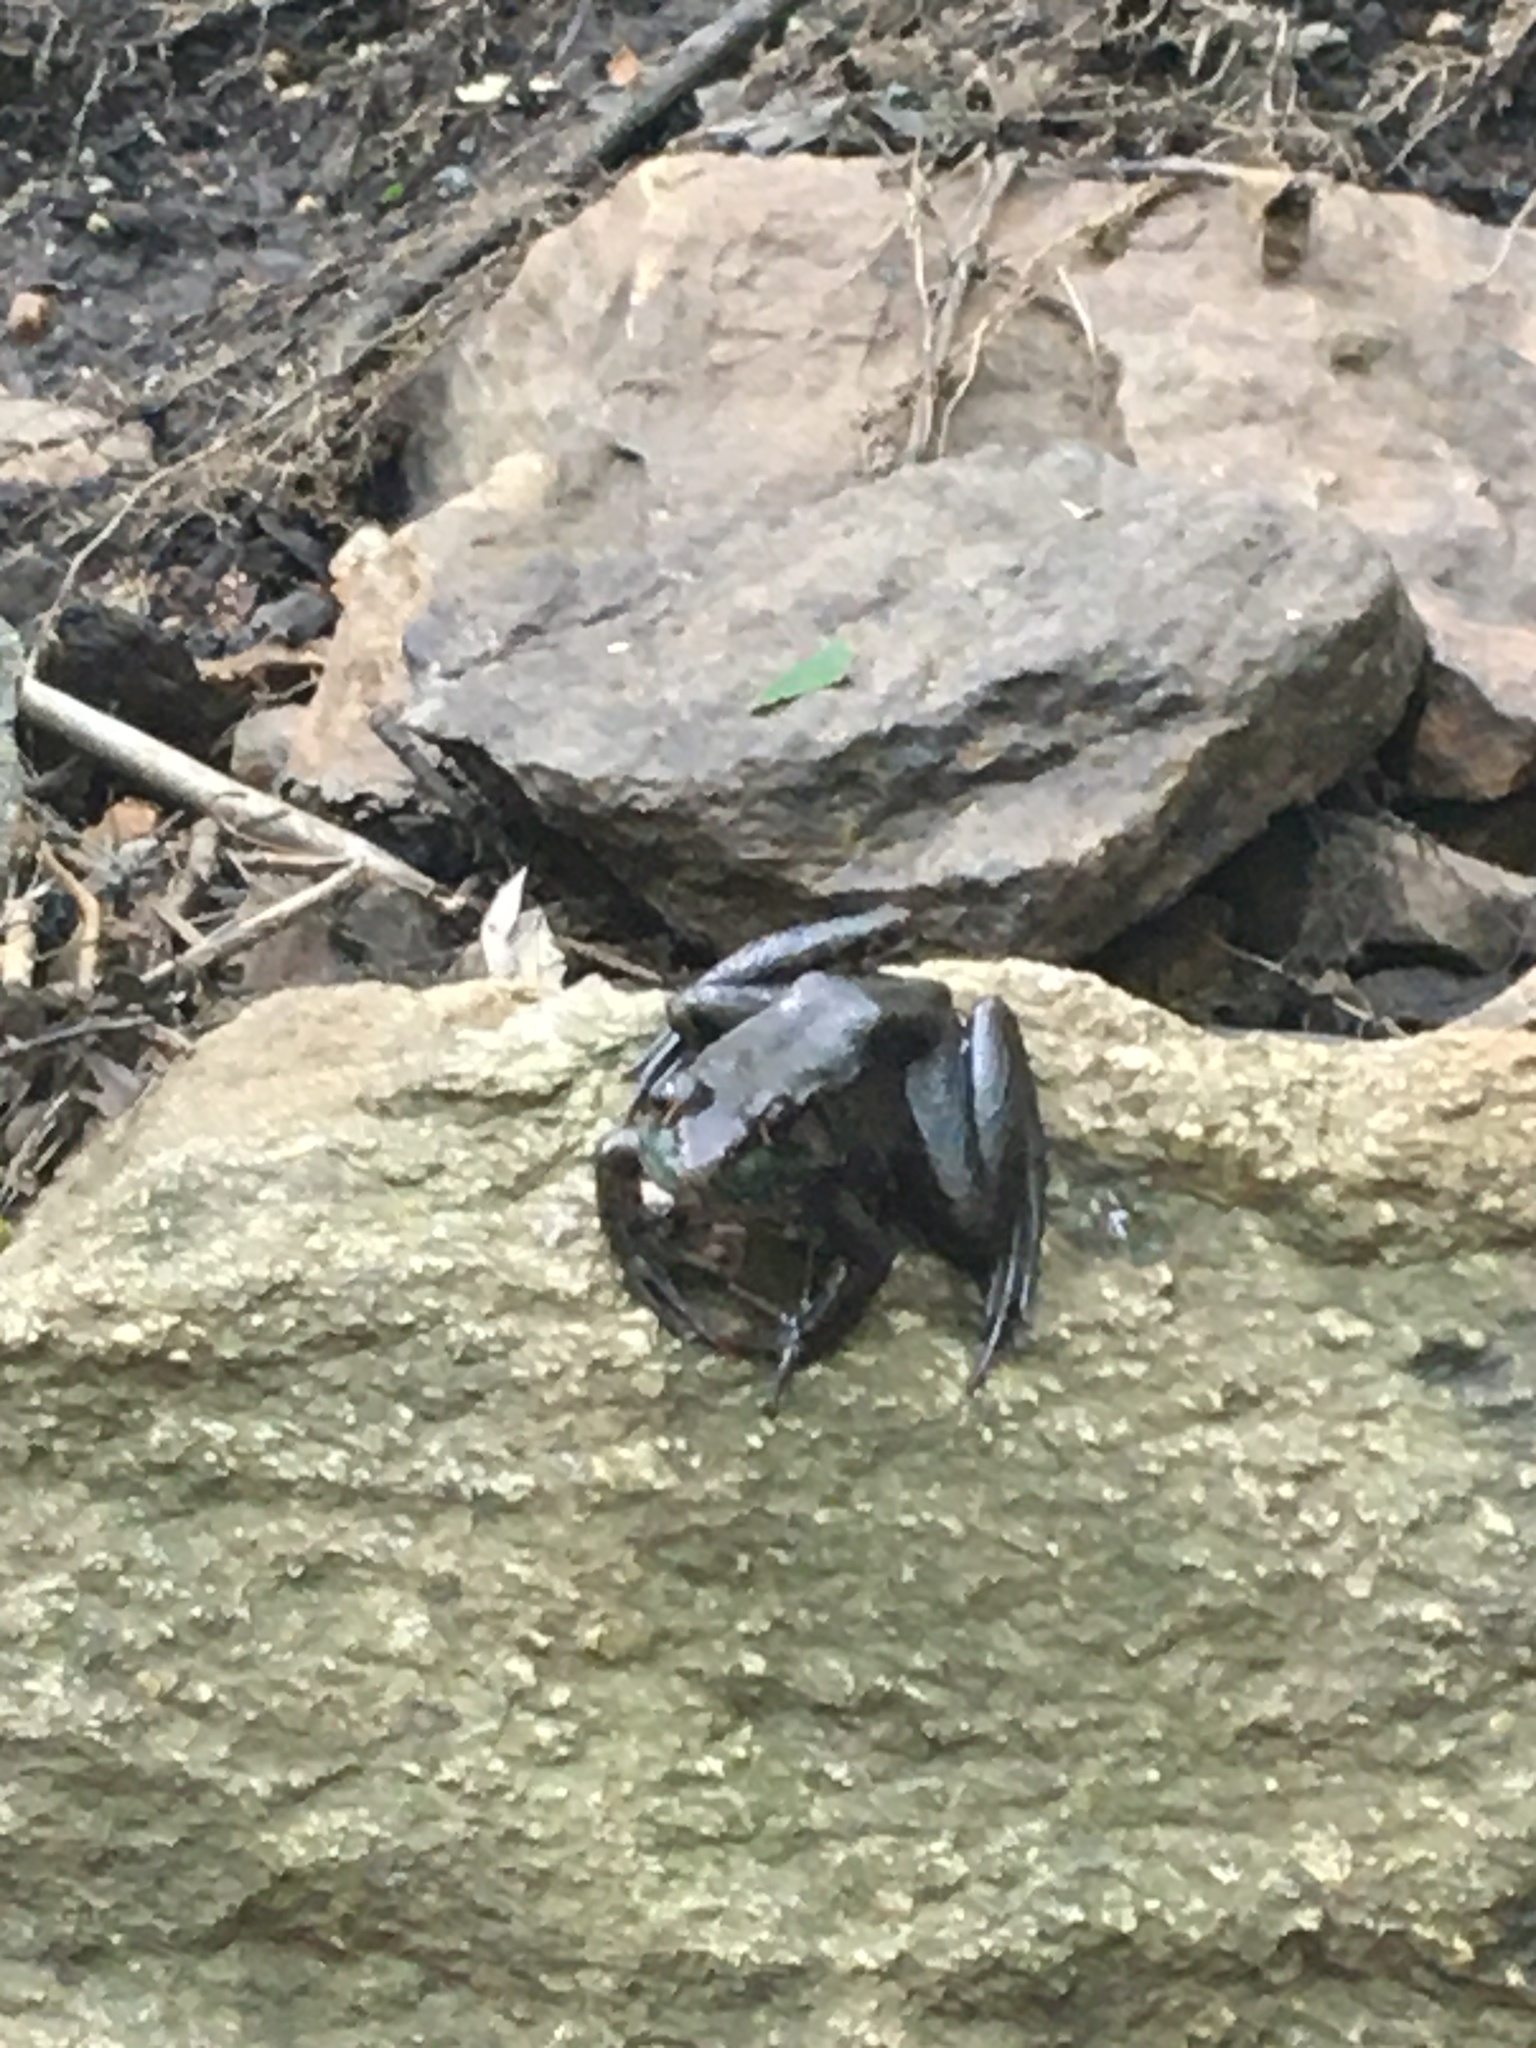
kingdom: Animalia
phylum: Chordata
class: Amphibia
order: Anura
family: Ranidae
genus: Lithobates
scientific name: Lithobates clamitans
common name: Green frog
